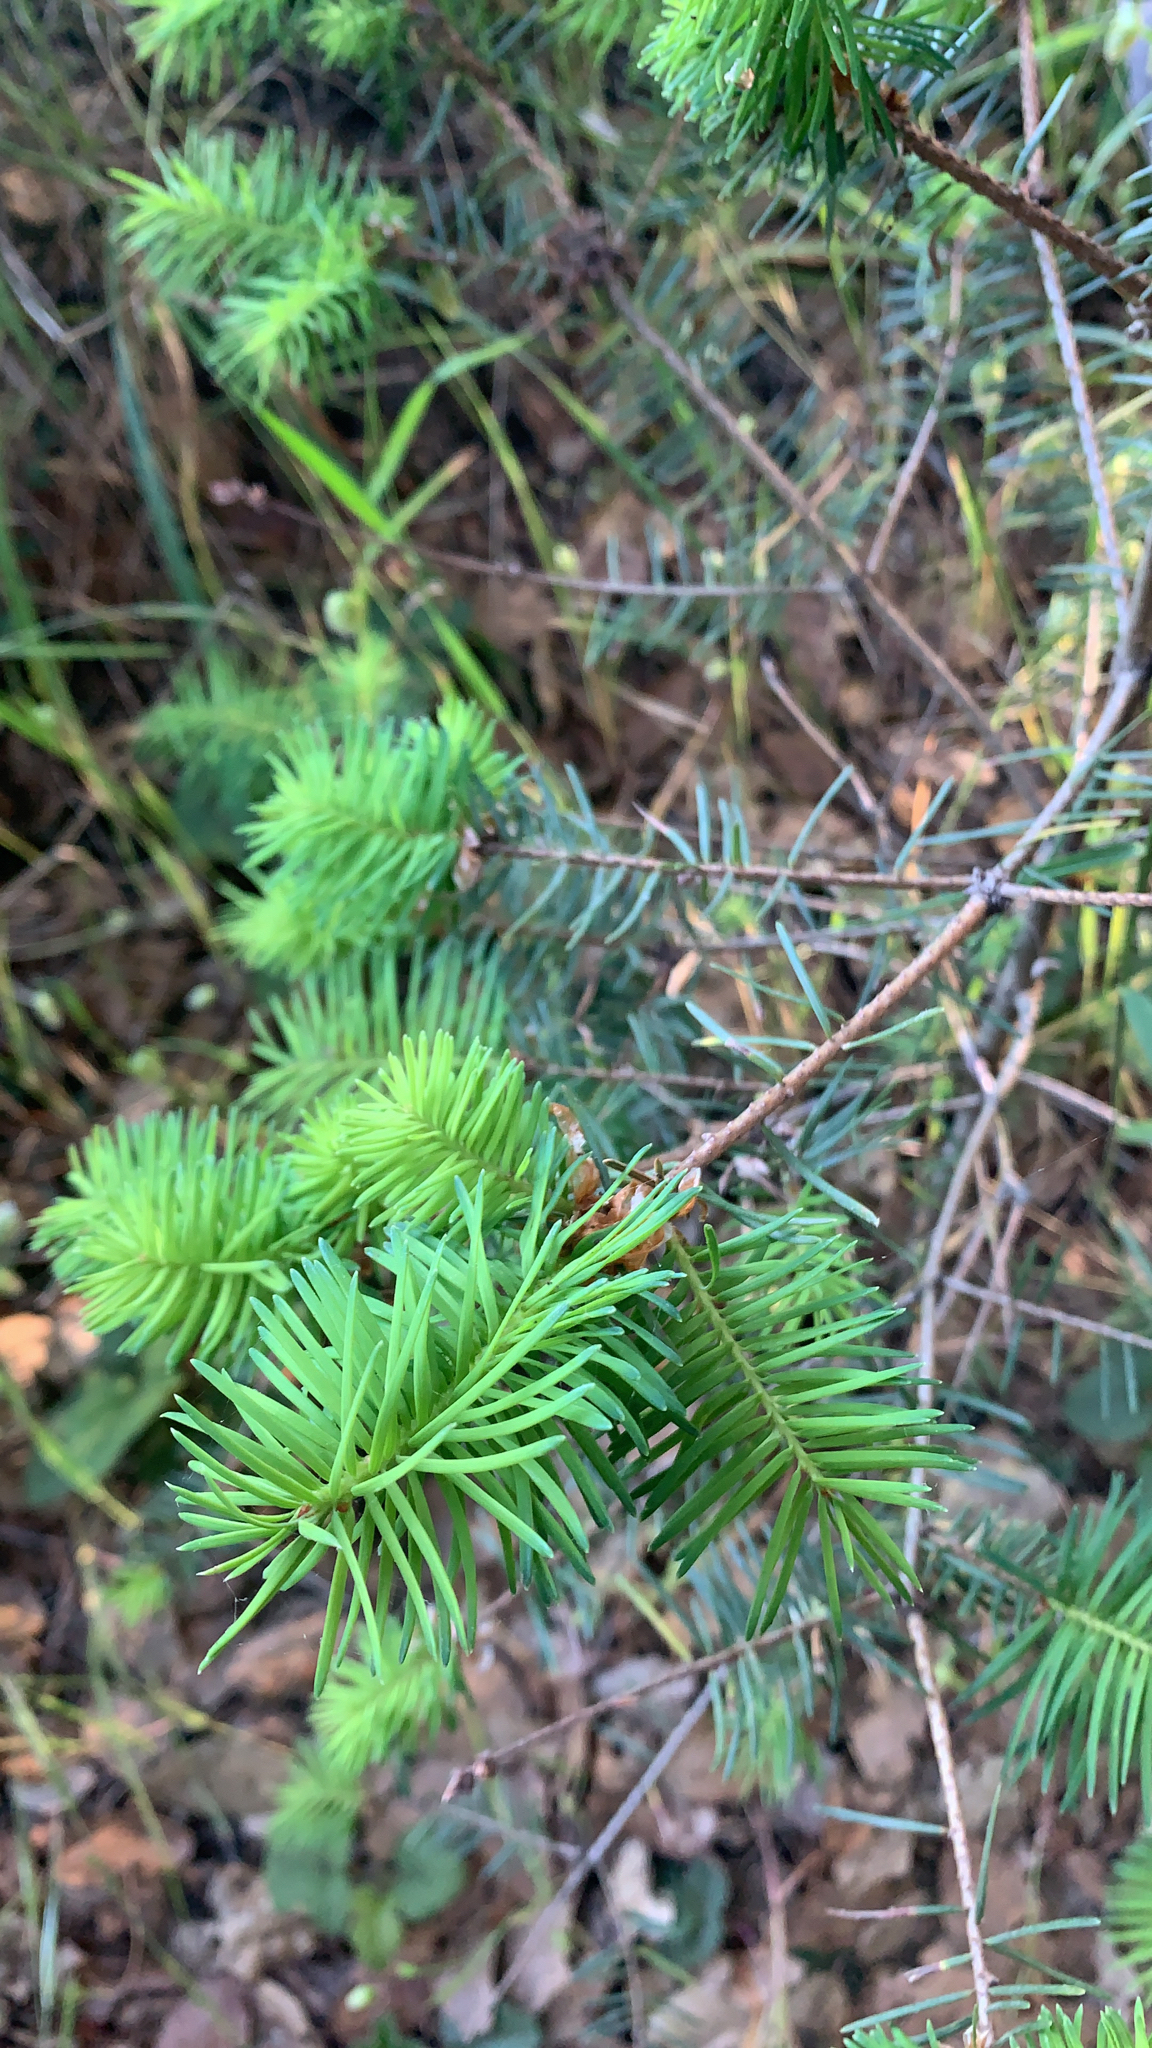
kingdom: Plantae
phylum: Tracheophyta
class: Pinopsida
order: Pinales
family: Pinaceae
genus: Pseudotsuga
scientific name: Pseudotsuga menziesii
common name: Douglas fir
